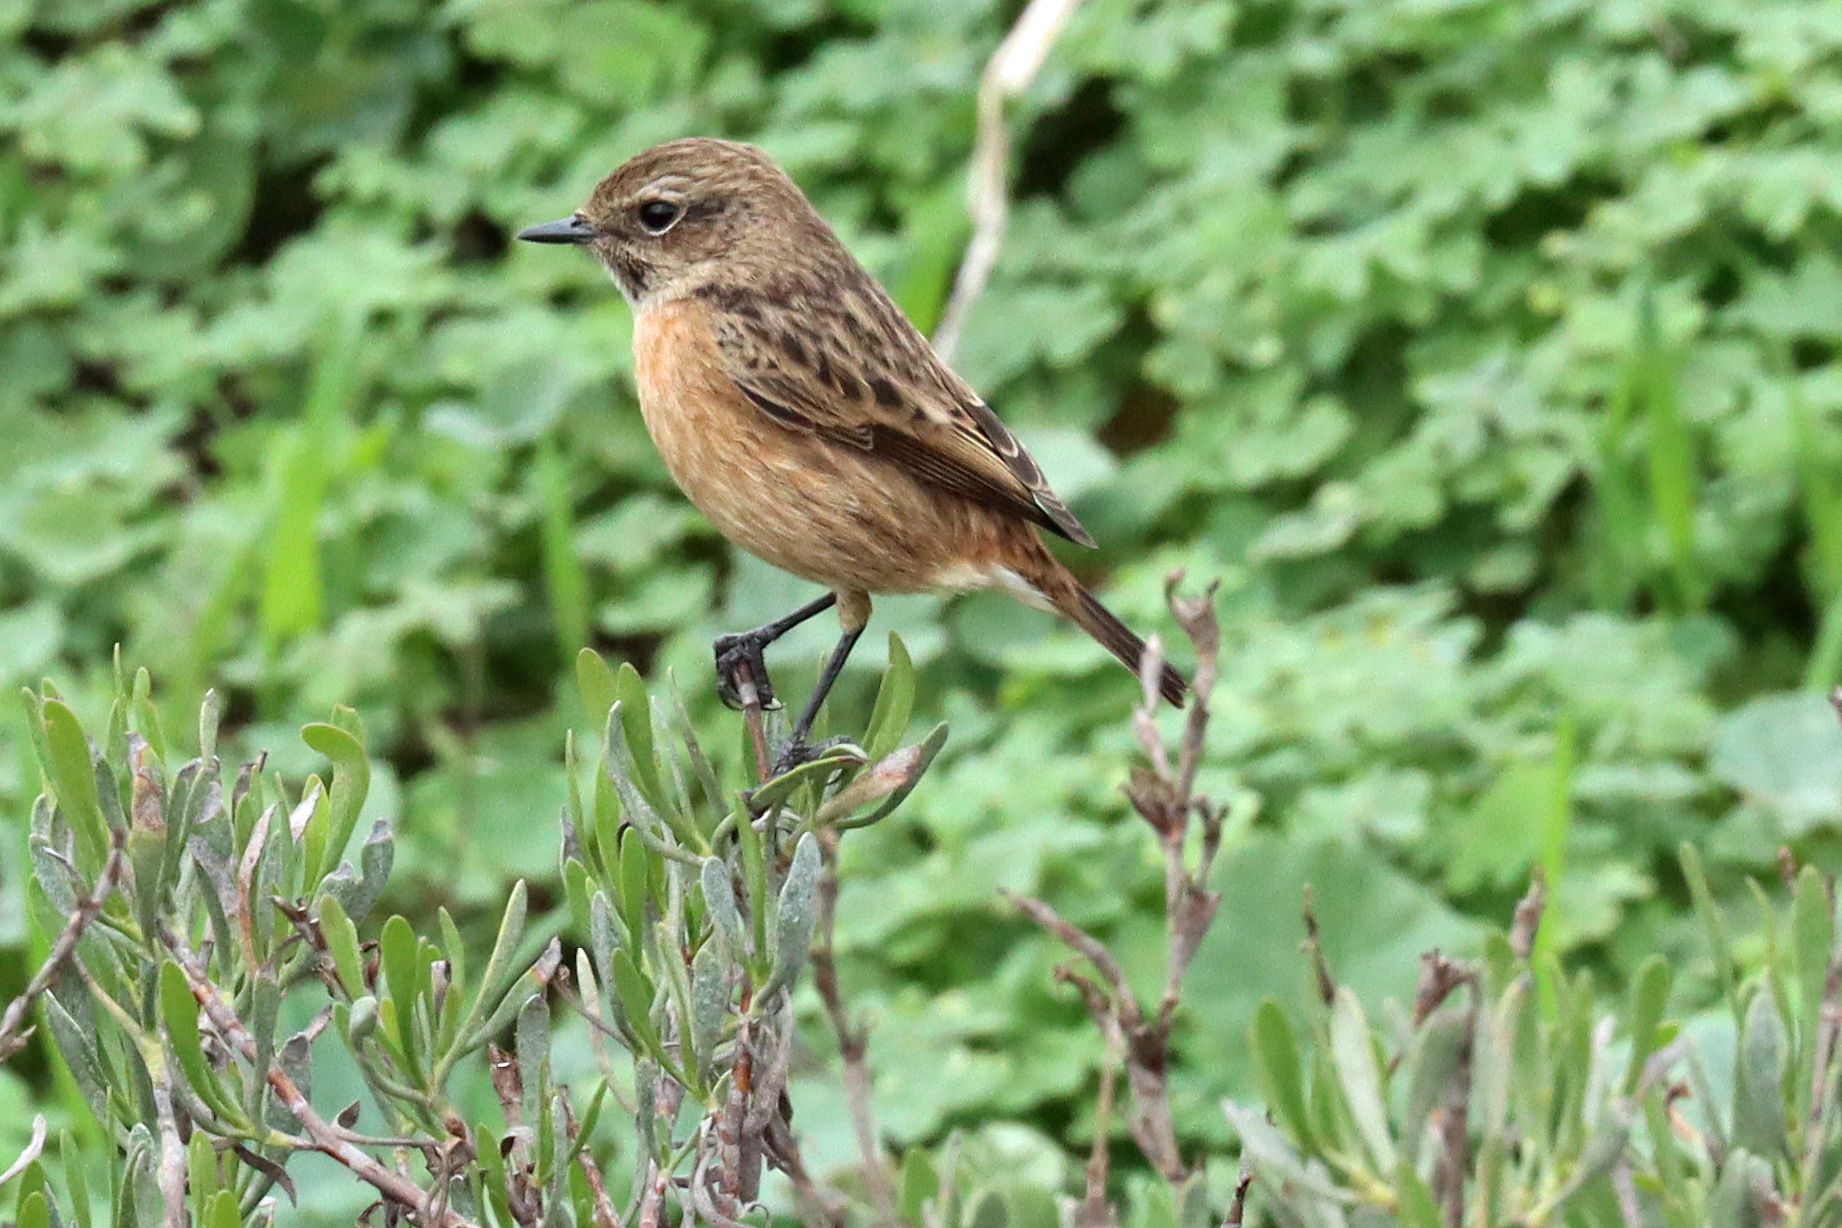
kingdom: Animalia
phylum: Chordata
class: Aves
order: Passeriformes
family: Muscicapidae
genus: Saxicola
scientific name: Saxicola rubicola
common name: European stonechat
